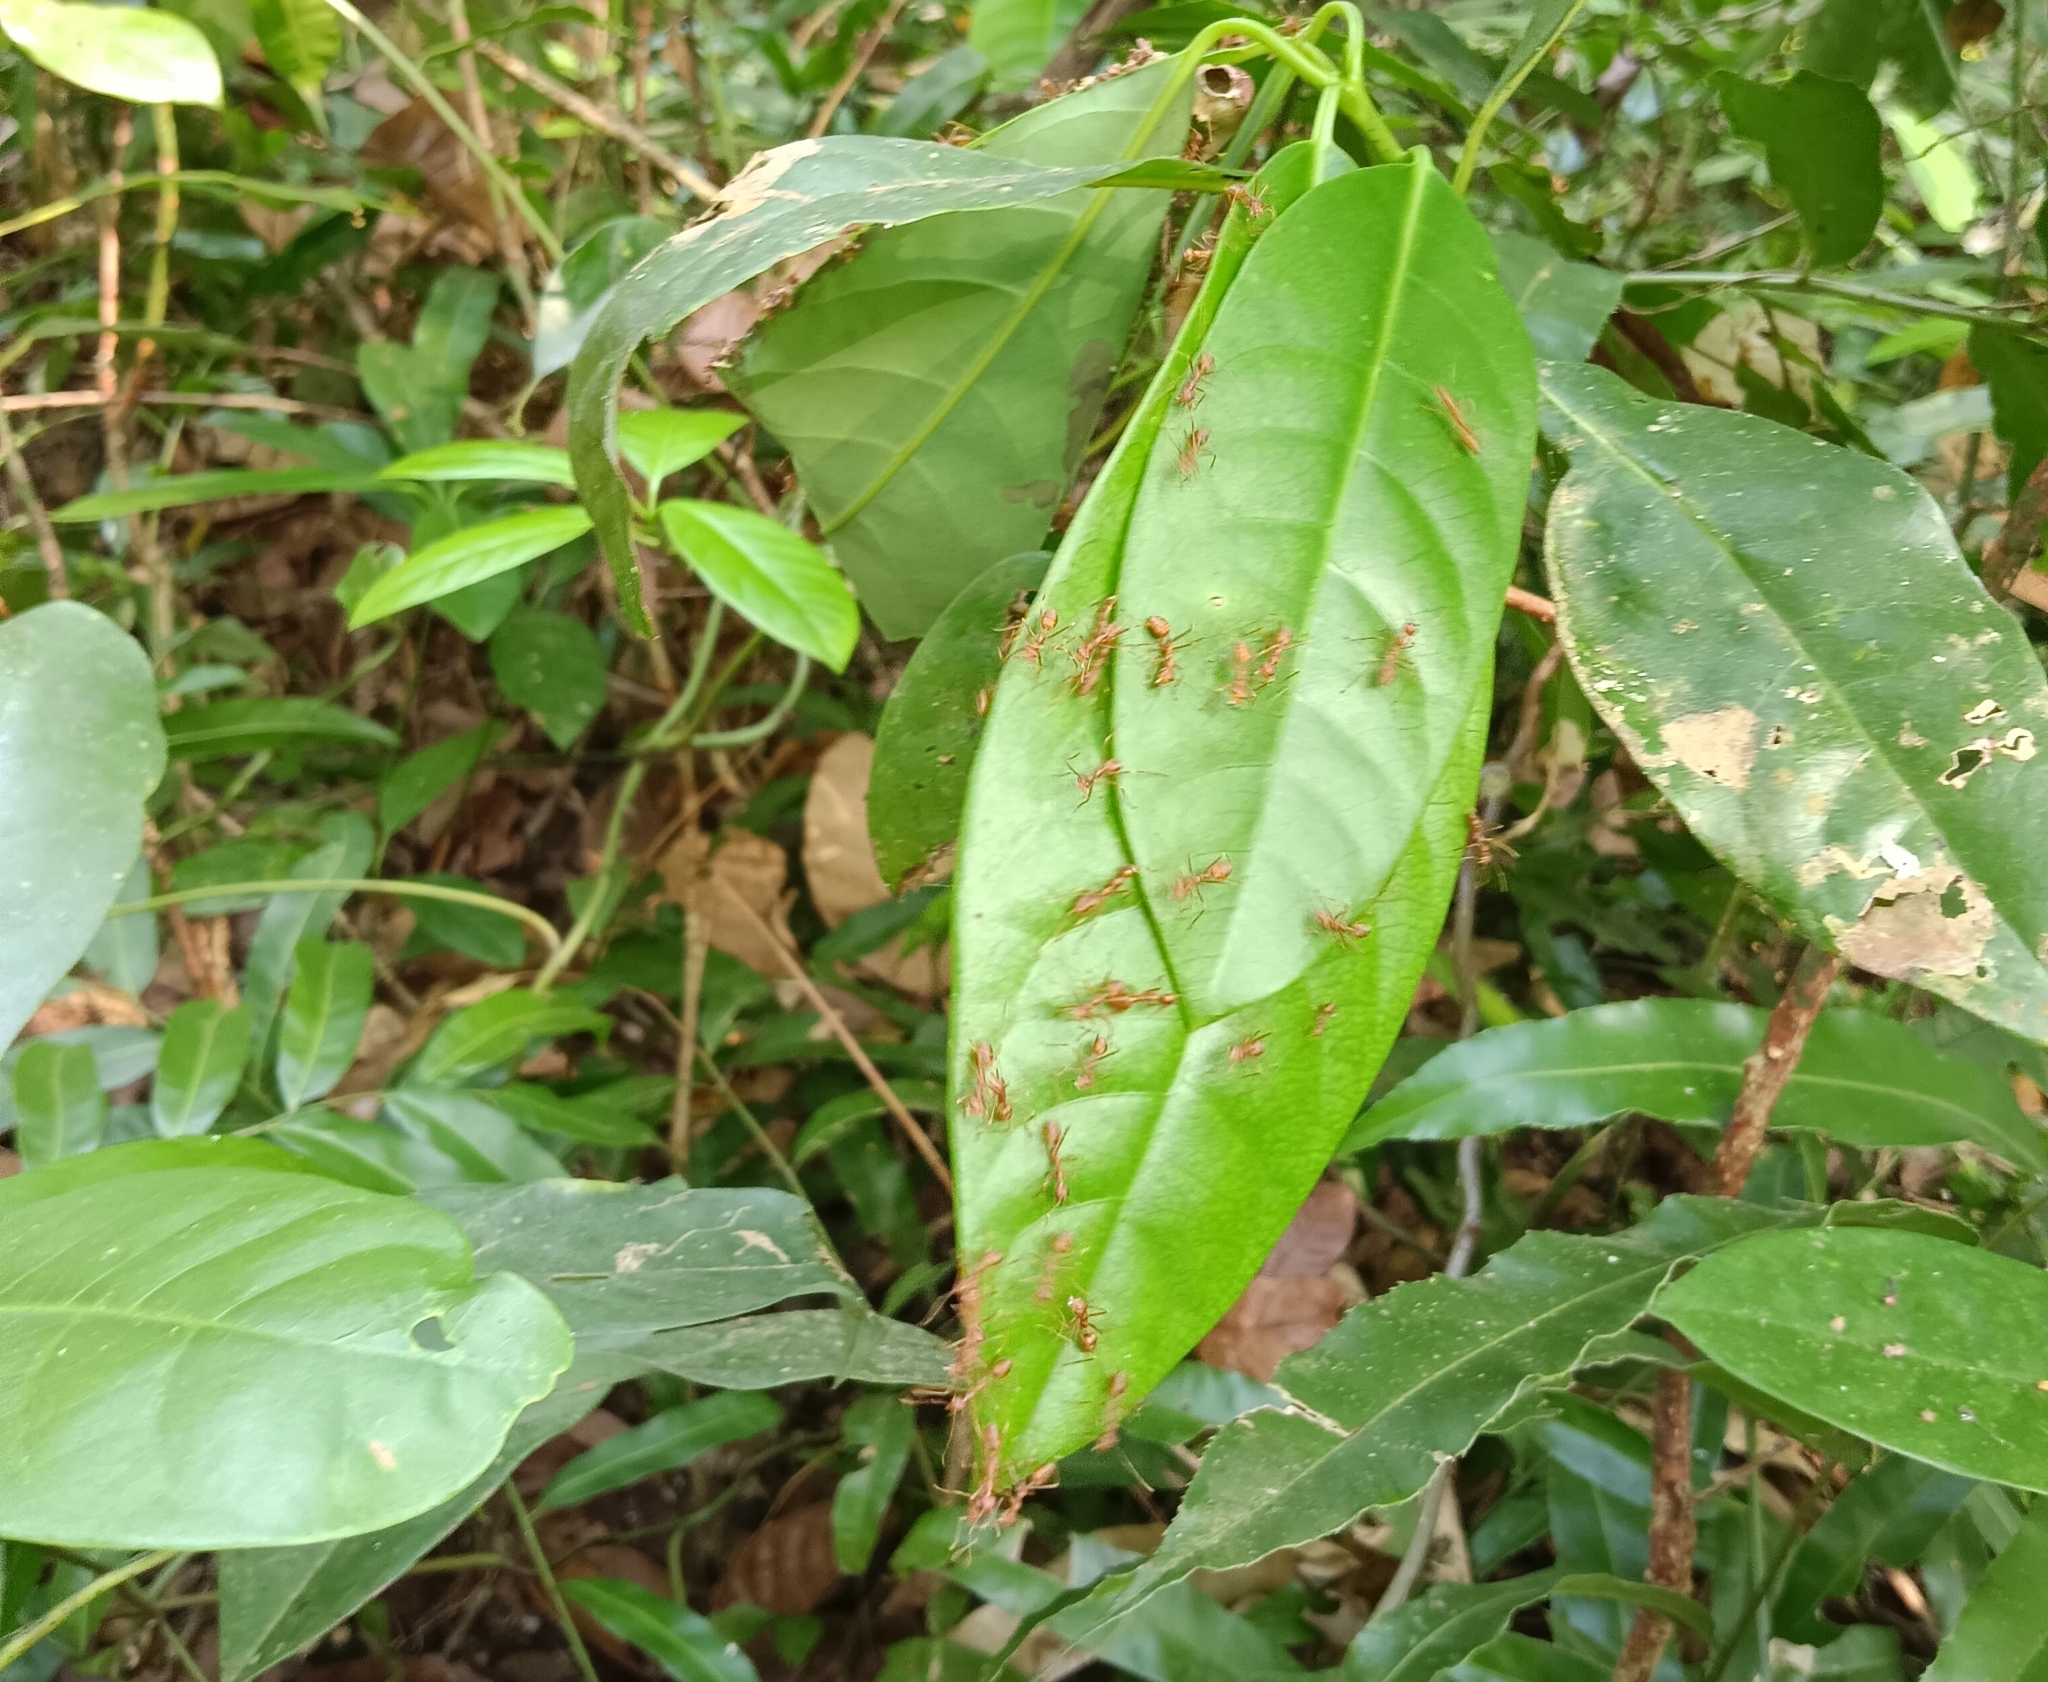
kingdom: Animalia
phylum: Arthropoda
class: Insecta
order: Hymenoptera
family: Formicidae
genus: Oecophylla
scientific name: Oecophylla smaragdina
